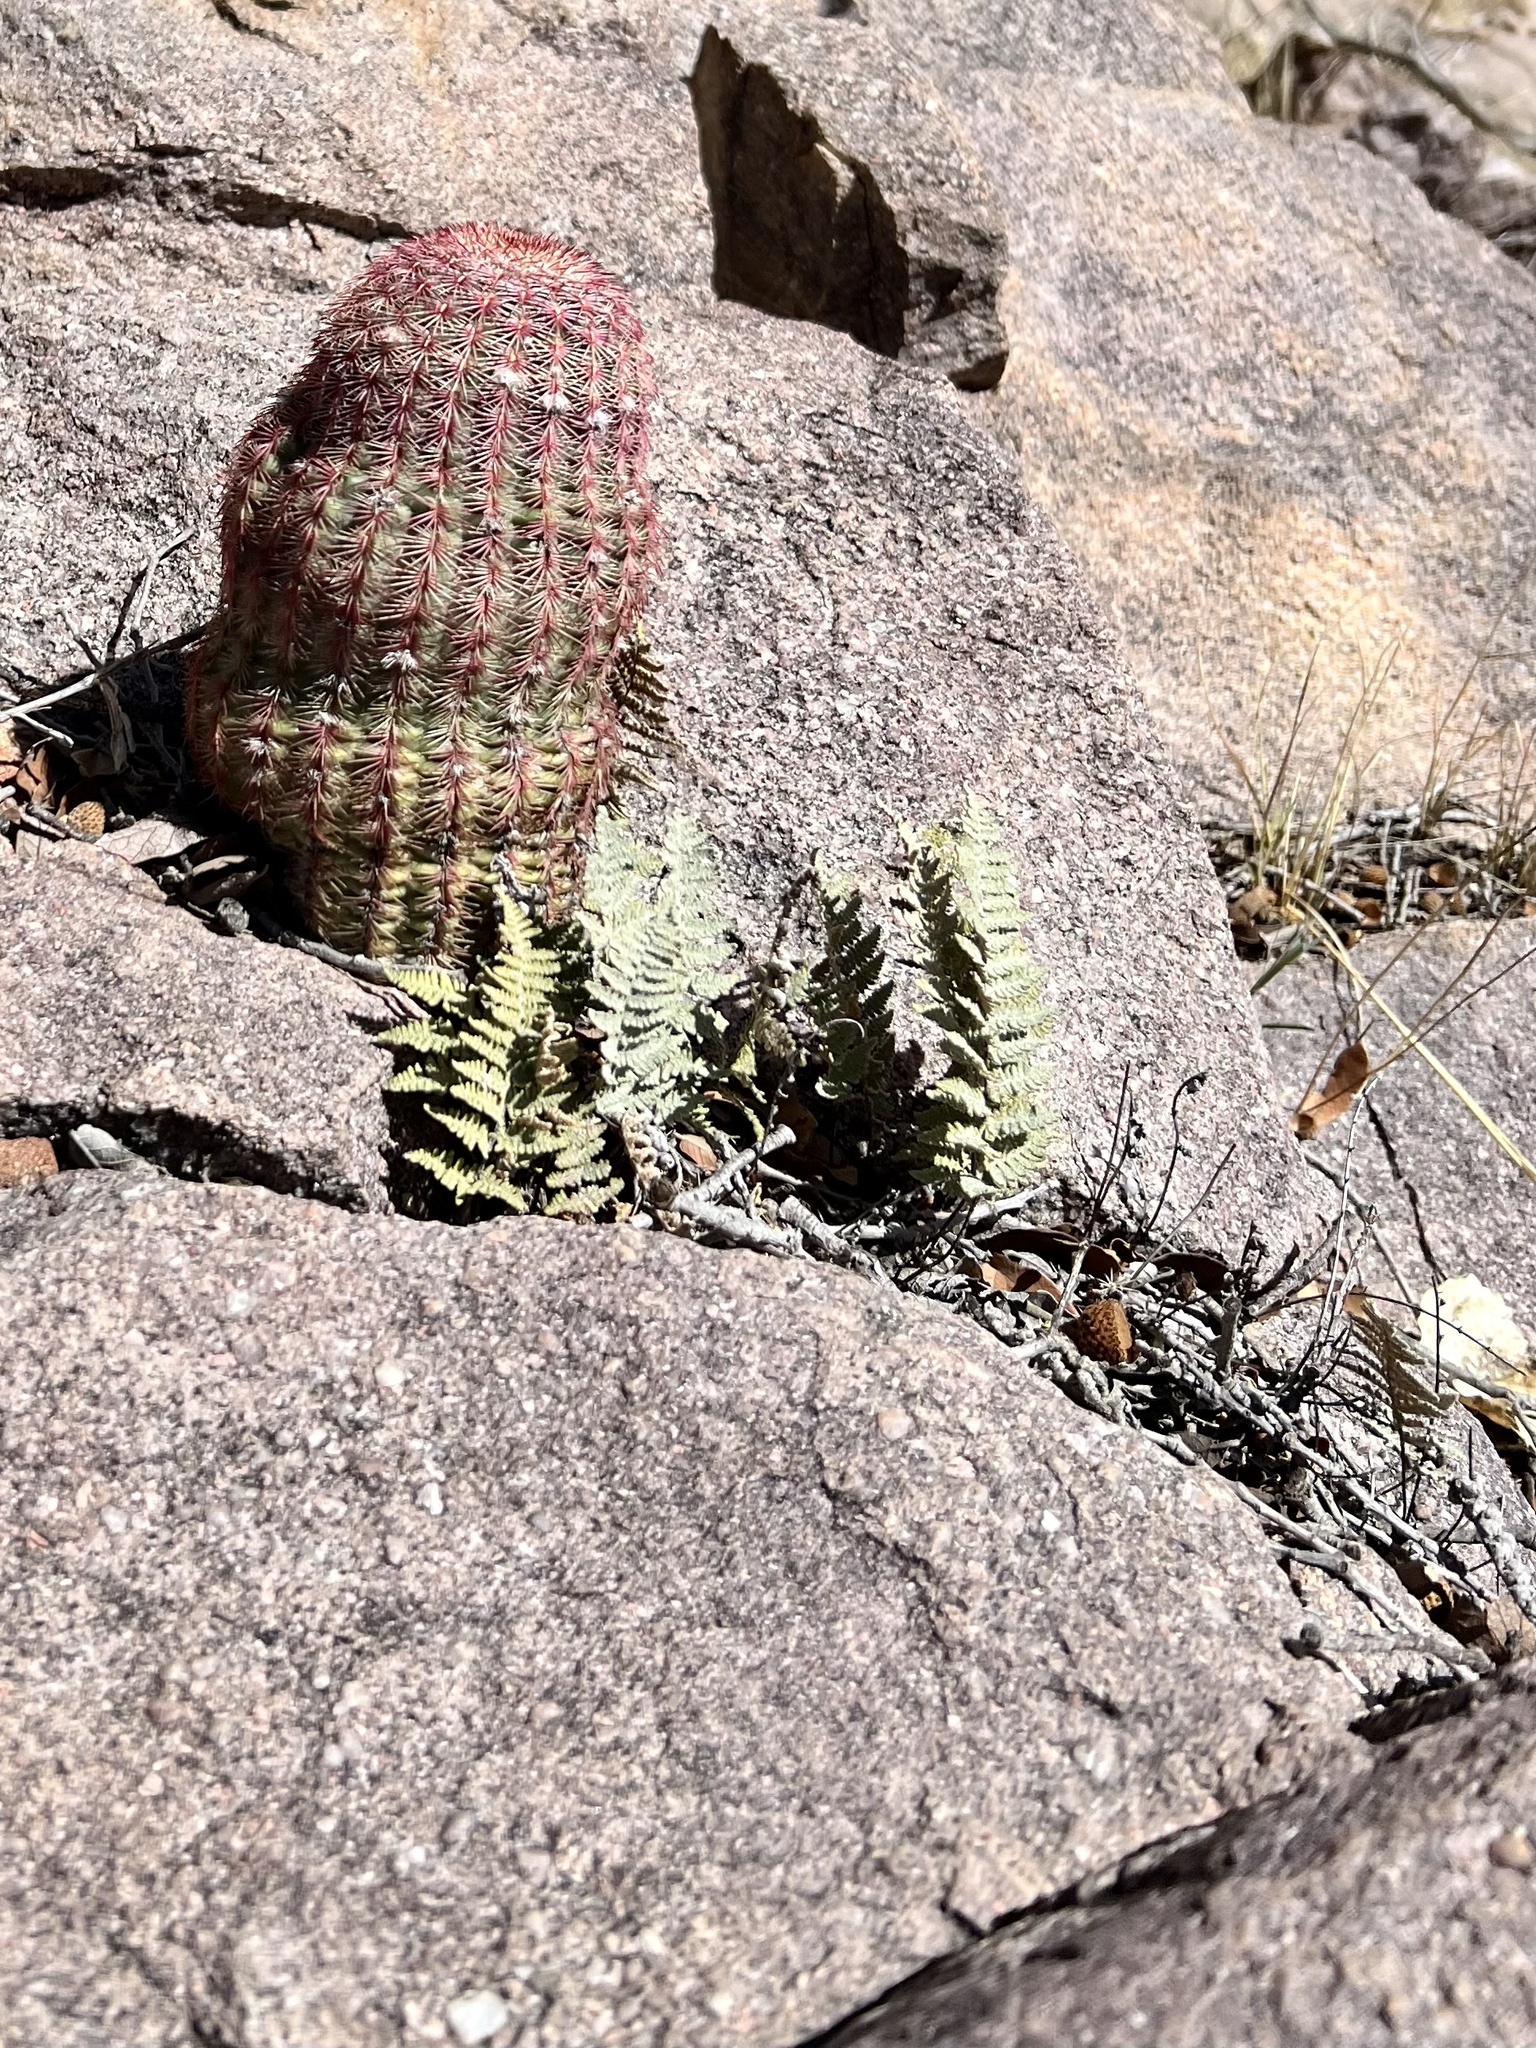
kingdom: Plantae
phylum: Tracheophyta
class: Polypodiopsida
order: Polypodiales
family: Pteridaceae
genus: Myriopteris
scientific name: Myriopteris lindheimeri
